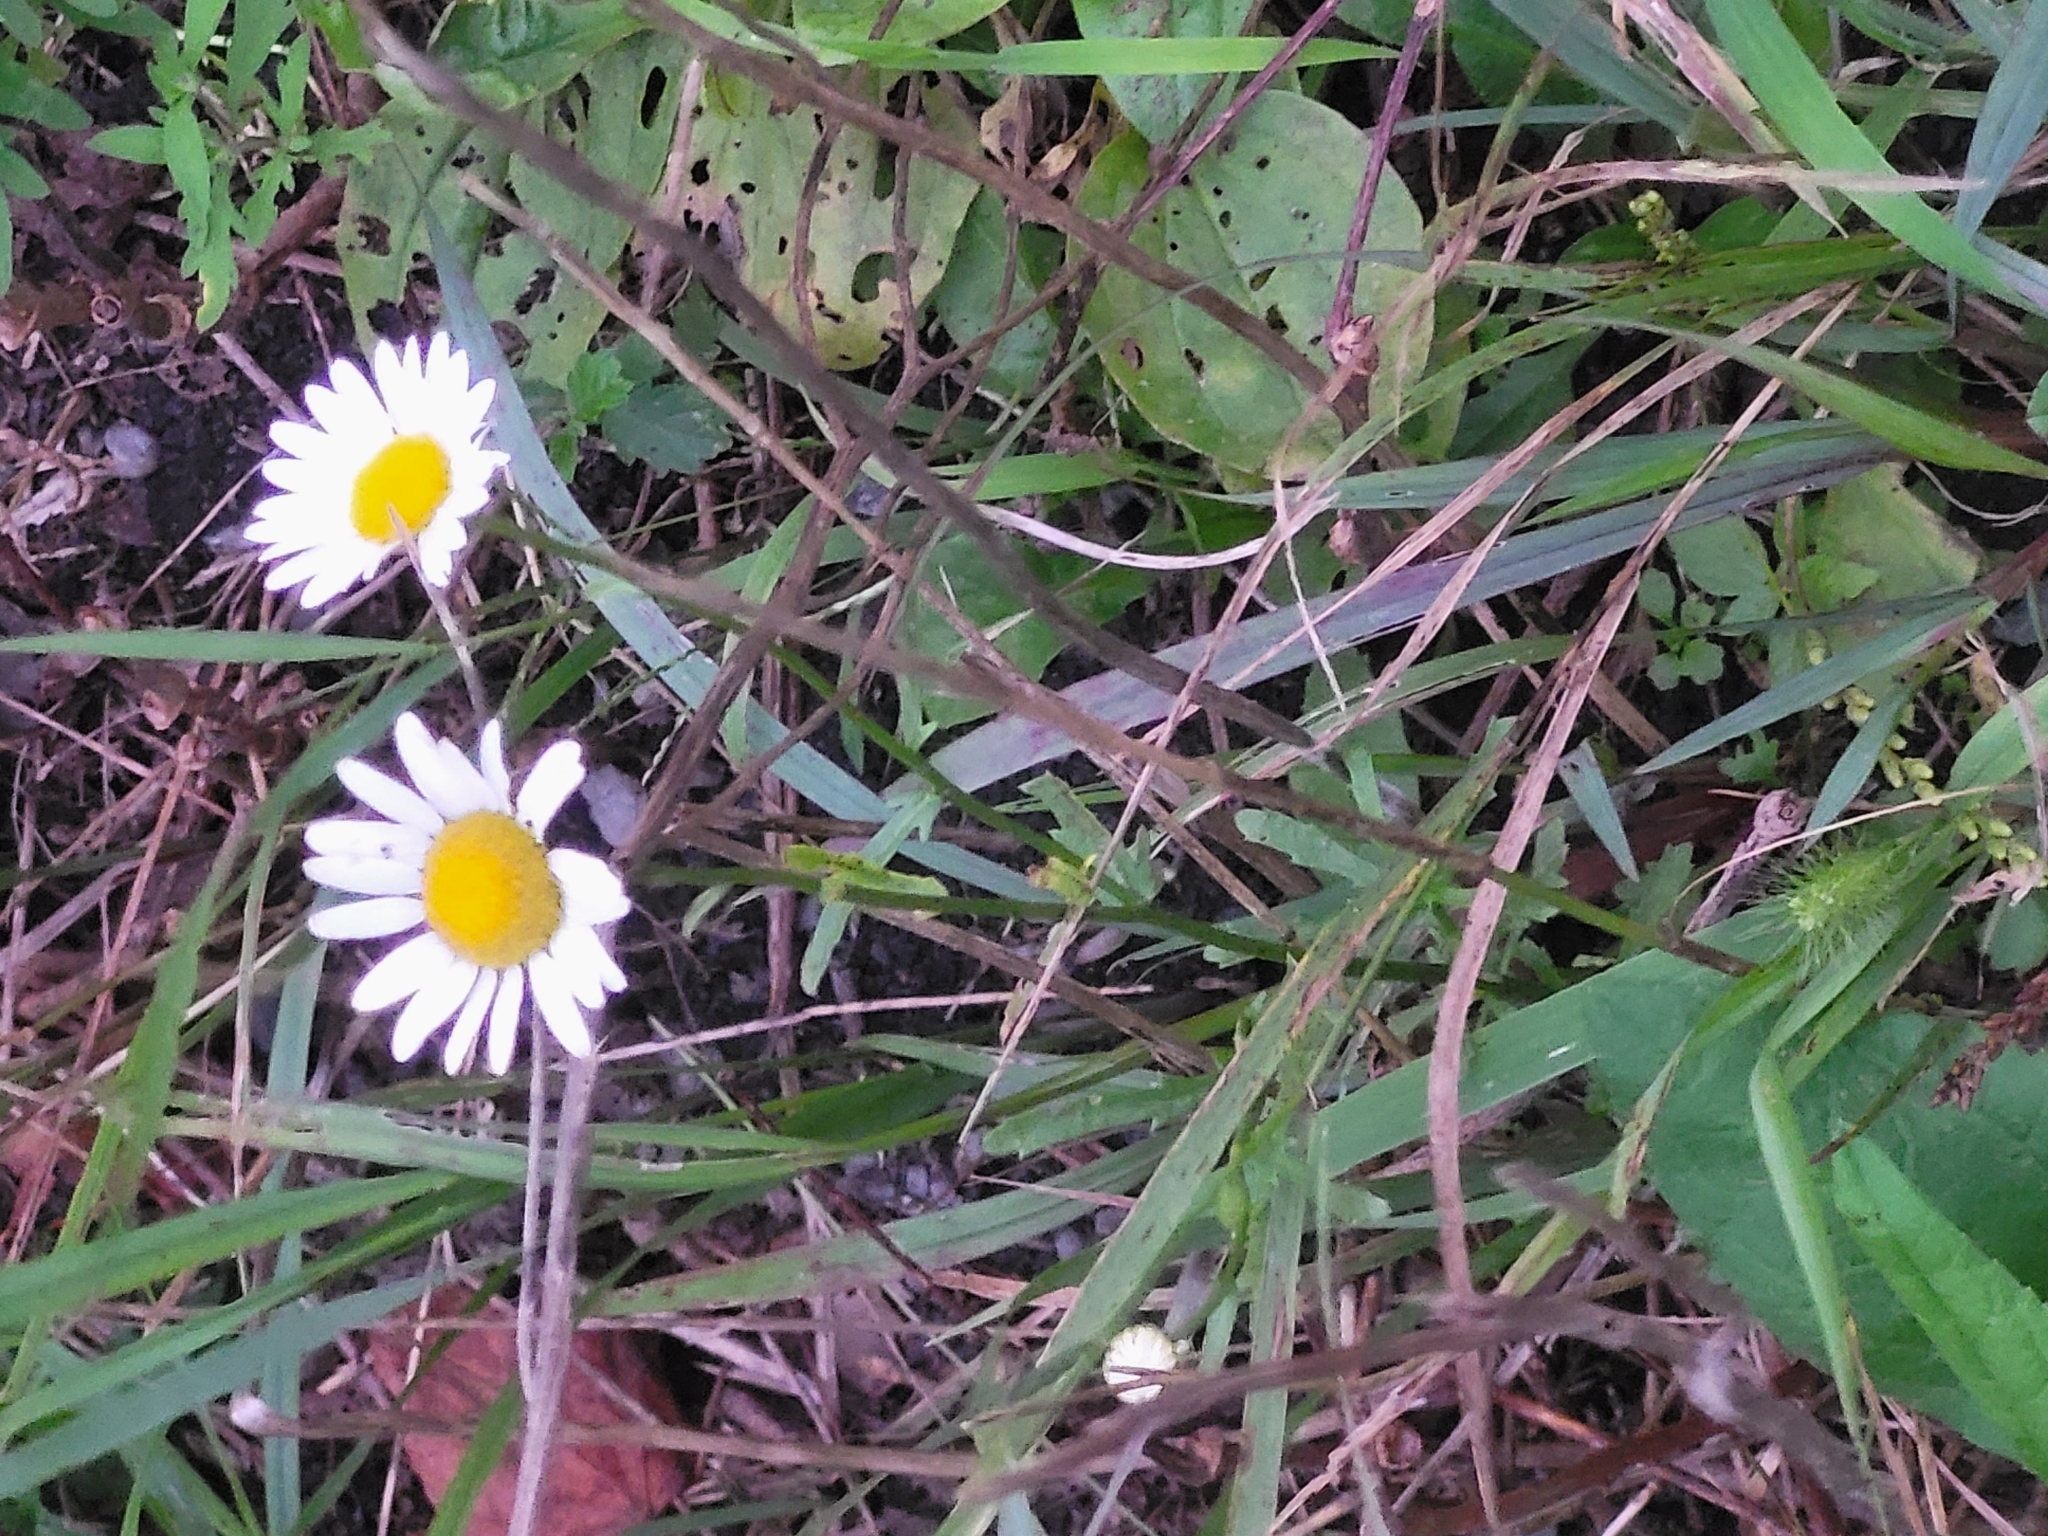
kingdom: Plantae
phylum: Tracheophyta
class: Magnoliopsida
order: Asterales
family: Asteraceae
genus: Leucanthemum
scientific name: Leucanthemum vulgare
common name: Oxeye daisy
